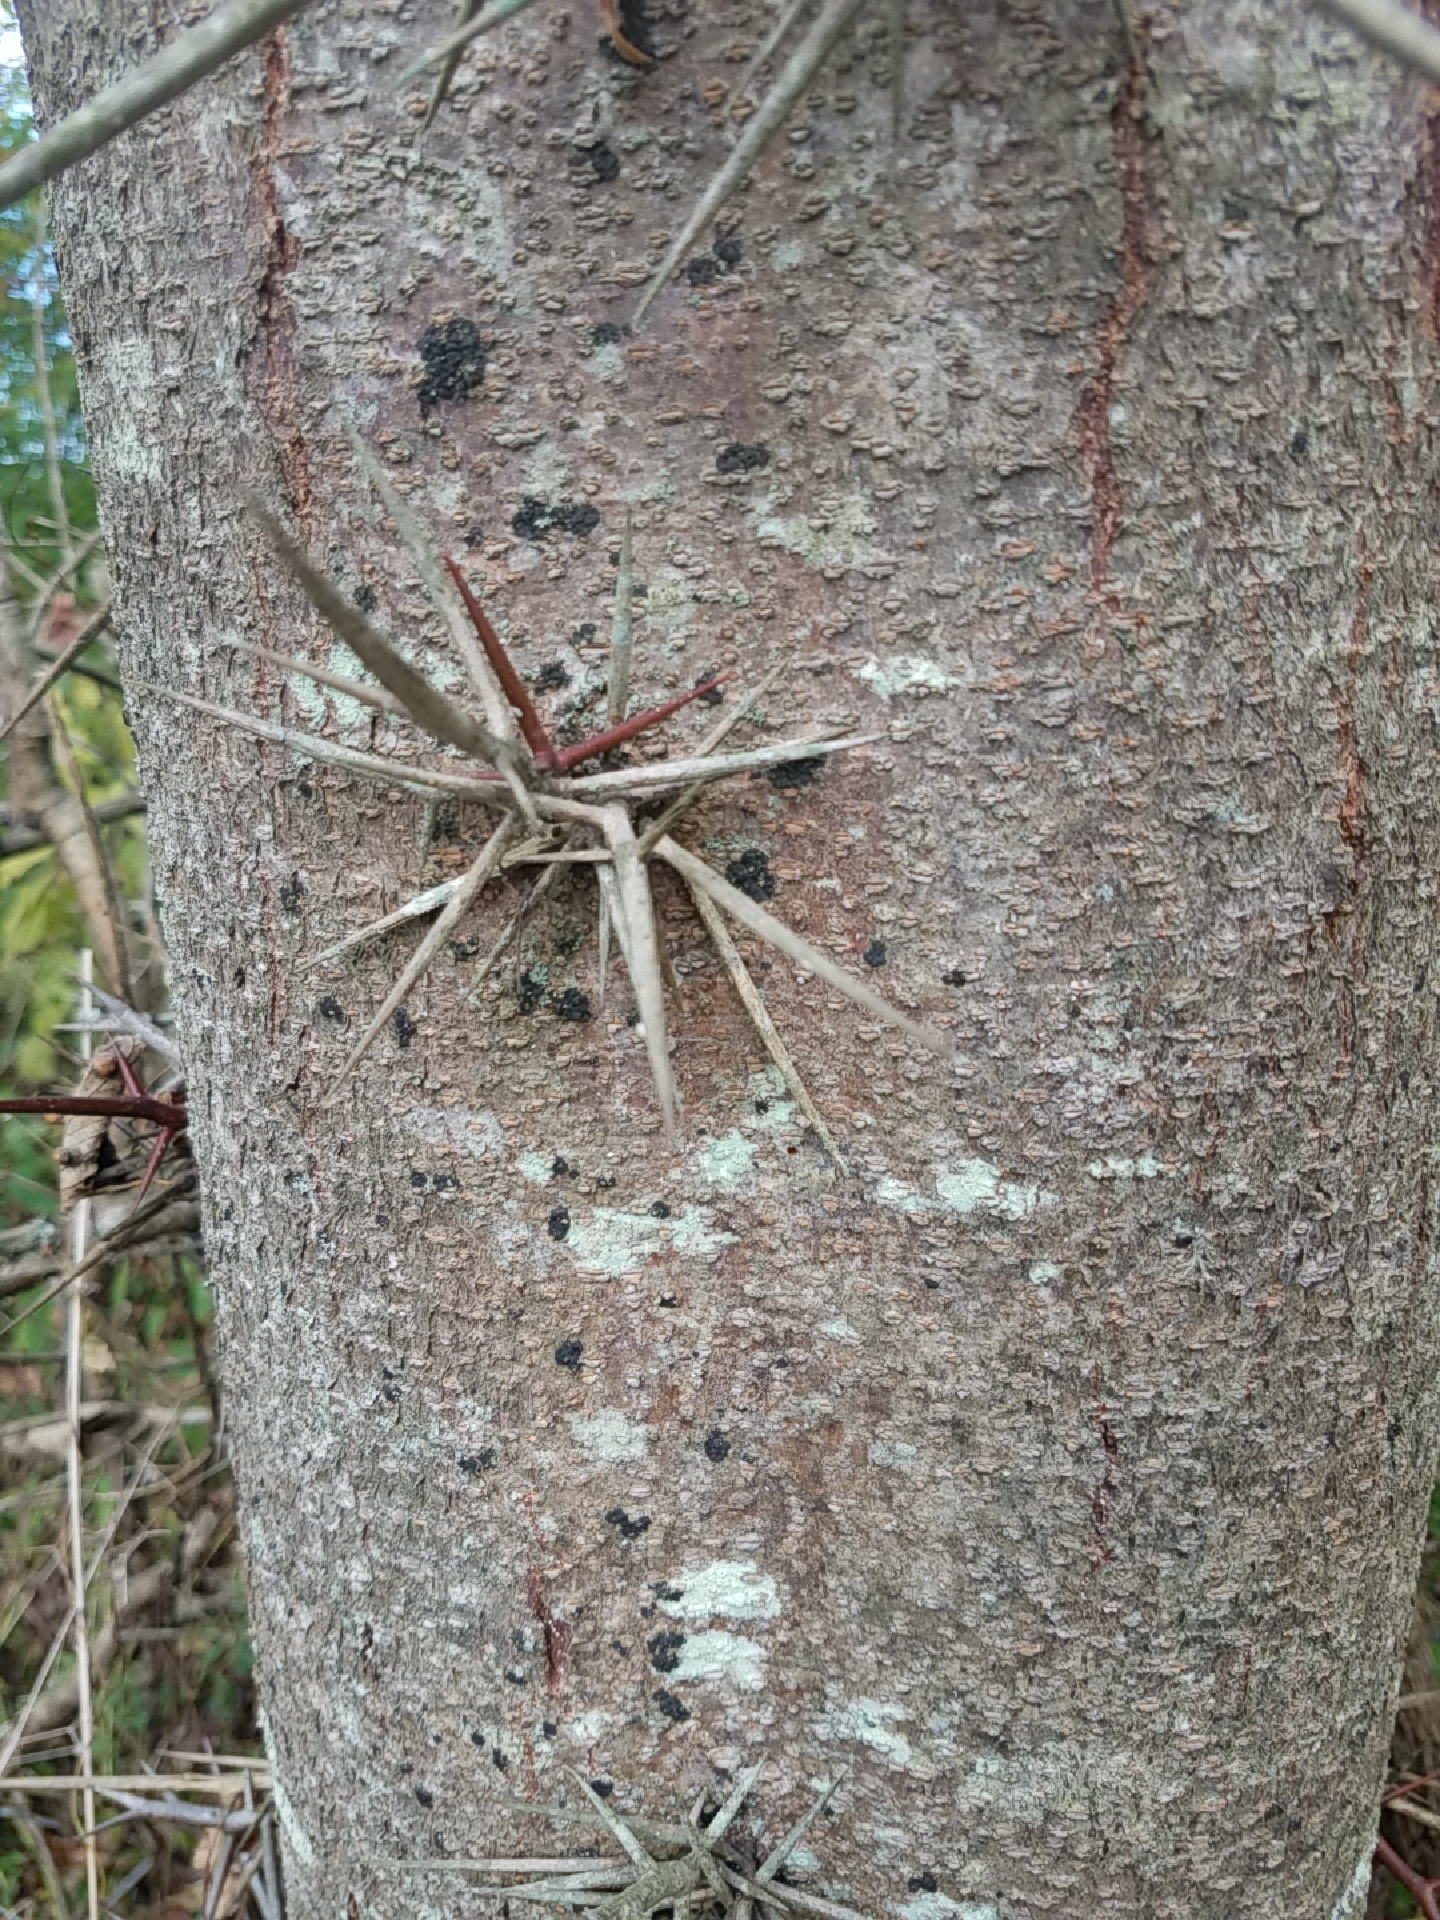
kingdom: Plantae
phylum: Tracheophyta
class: Magnoliopsida
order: Fabales
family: Fabaceae
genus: Gleditsia
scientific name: Gleditsia triacanthos
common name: Common honeylocust
